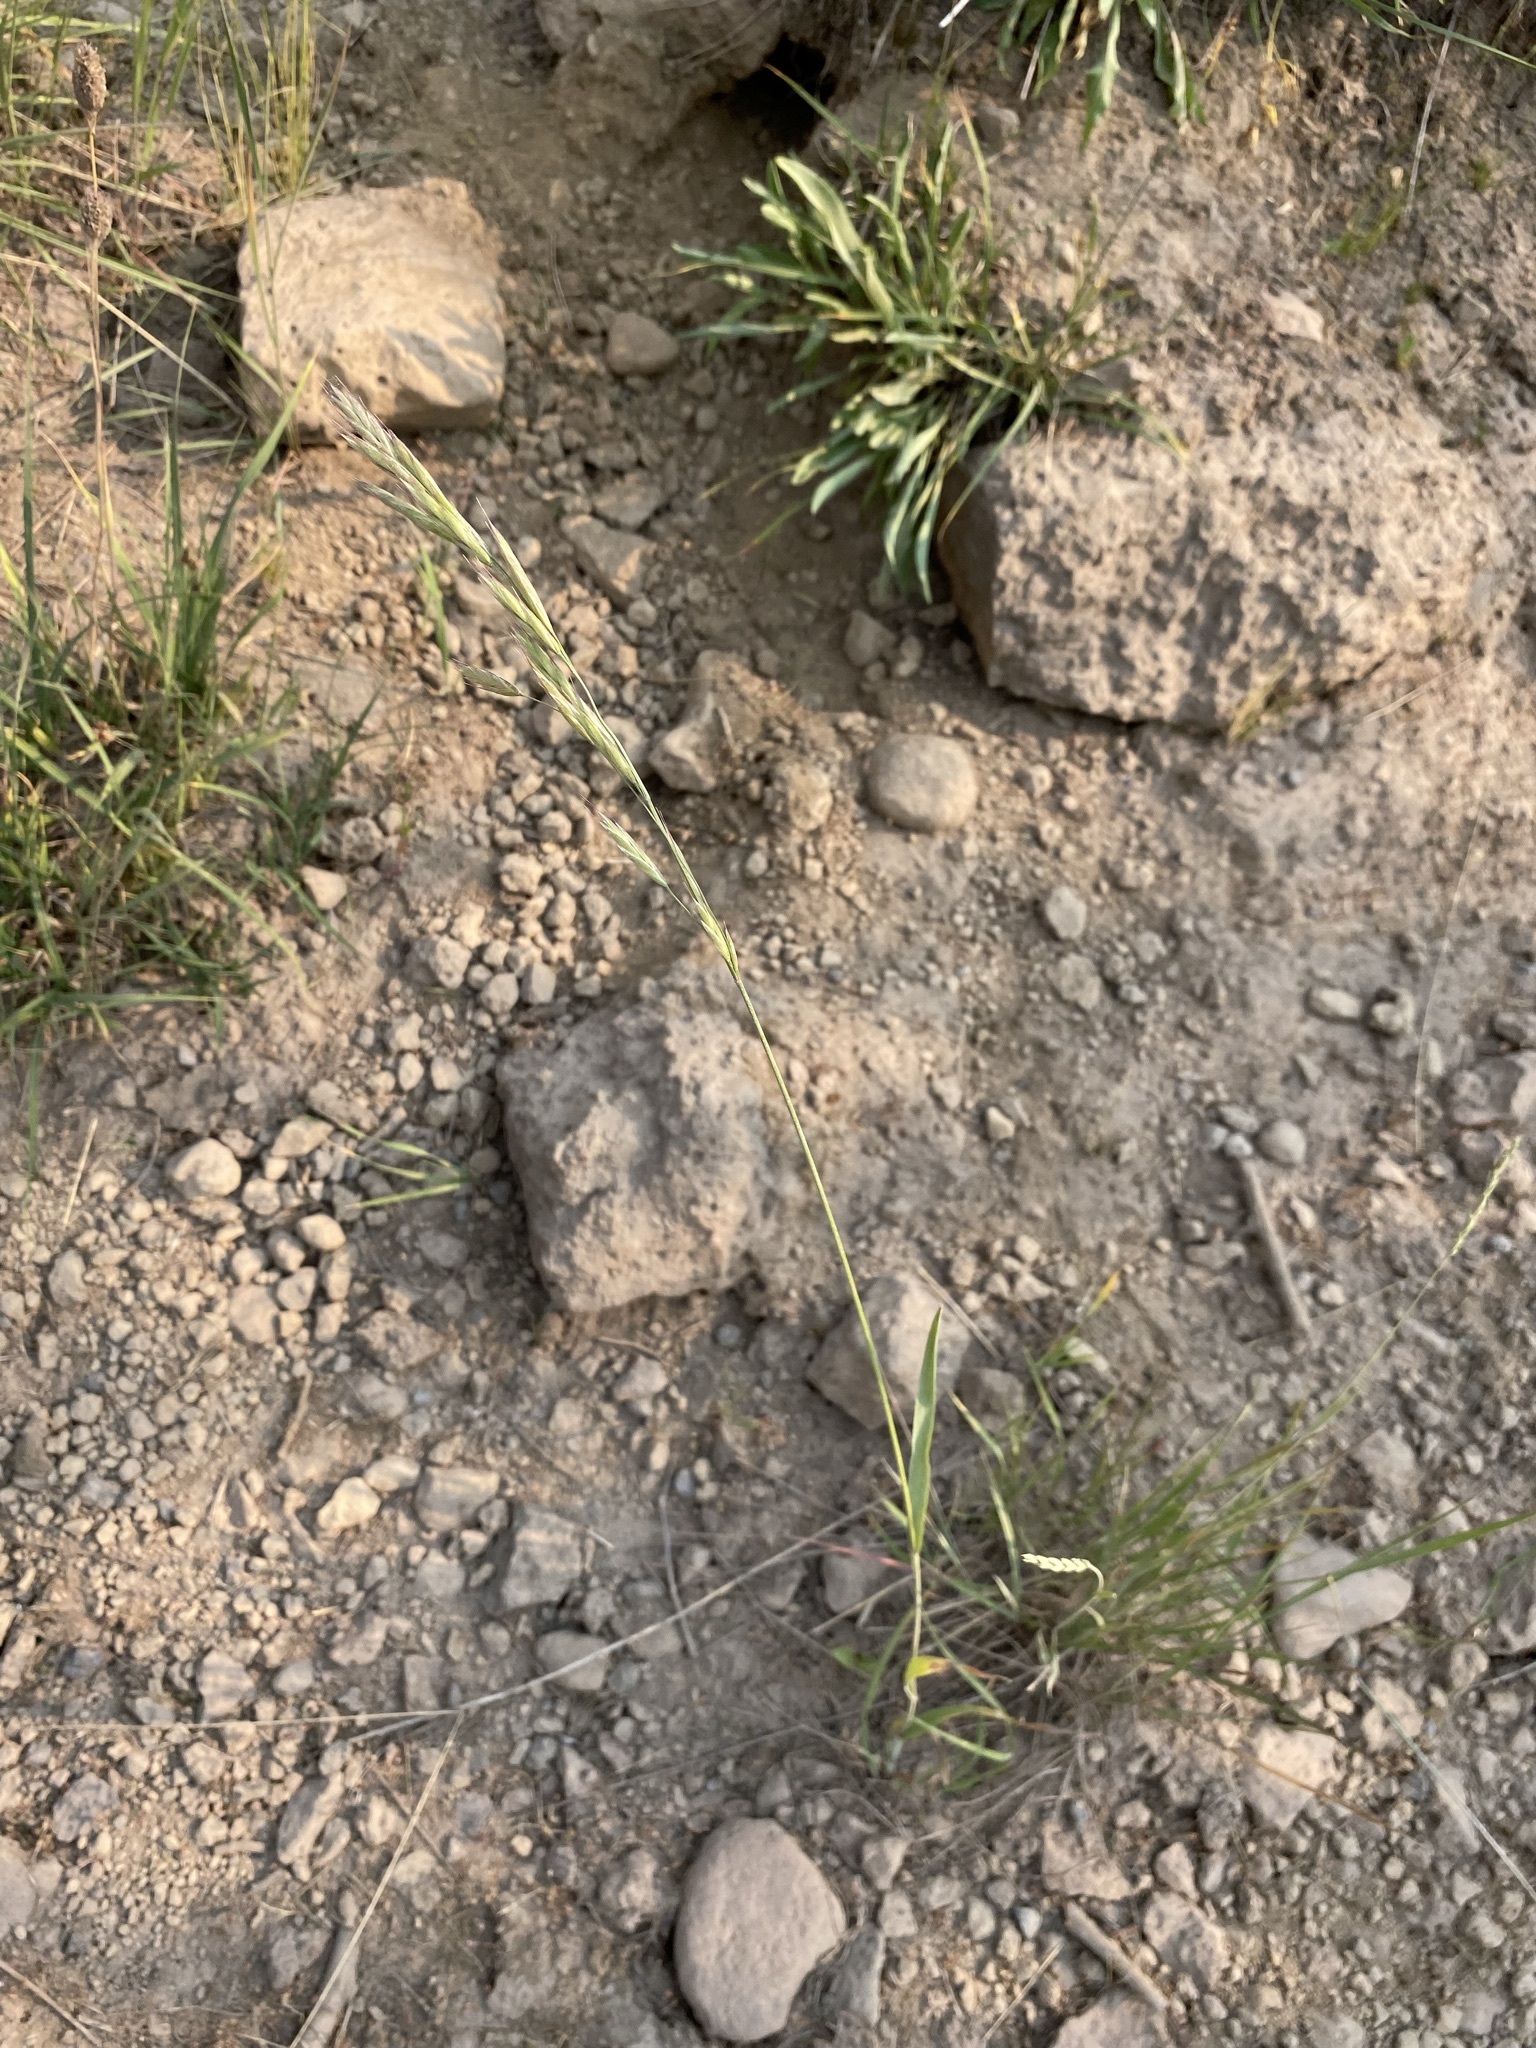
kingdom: Plantae
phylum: Tracheophyta
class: Liliopsida
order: Poales
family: Poaceae
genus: Bromus
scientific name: Bromus marginatus
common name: Western brome
